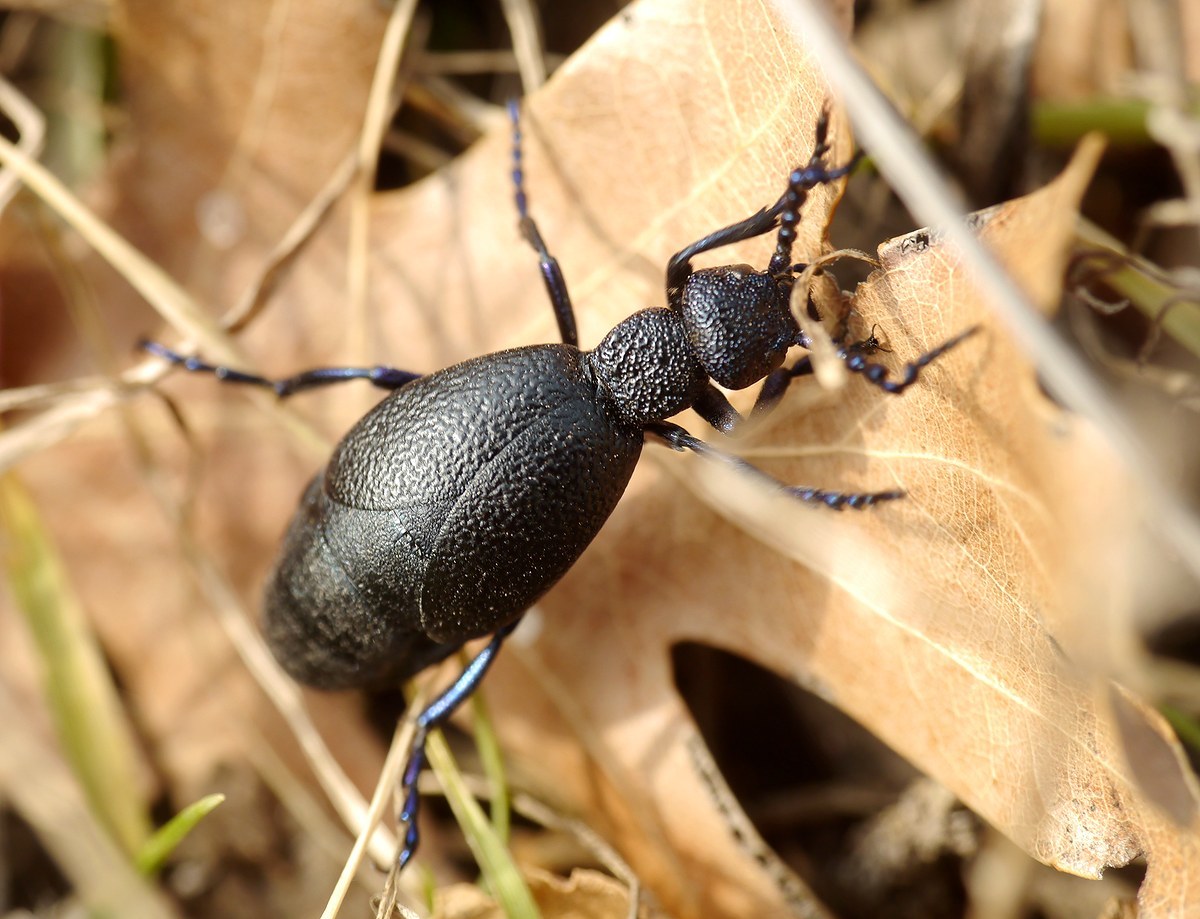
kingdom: Animalia
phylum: Arthropoda
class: Insecta
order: Coleoptera
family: Meloidae
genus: Meloe
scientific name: Meloe proscarabaeus
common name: Black oil-beetle
